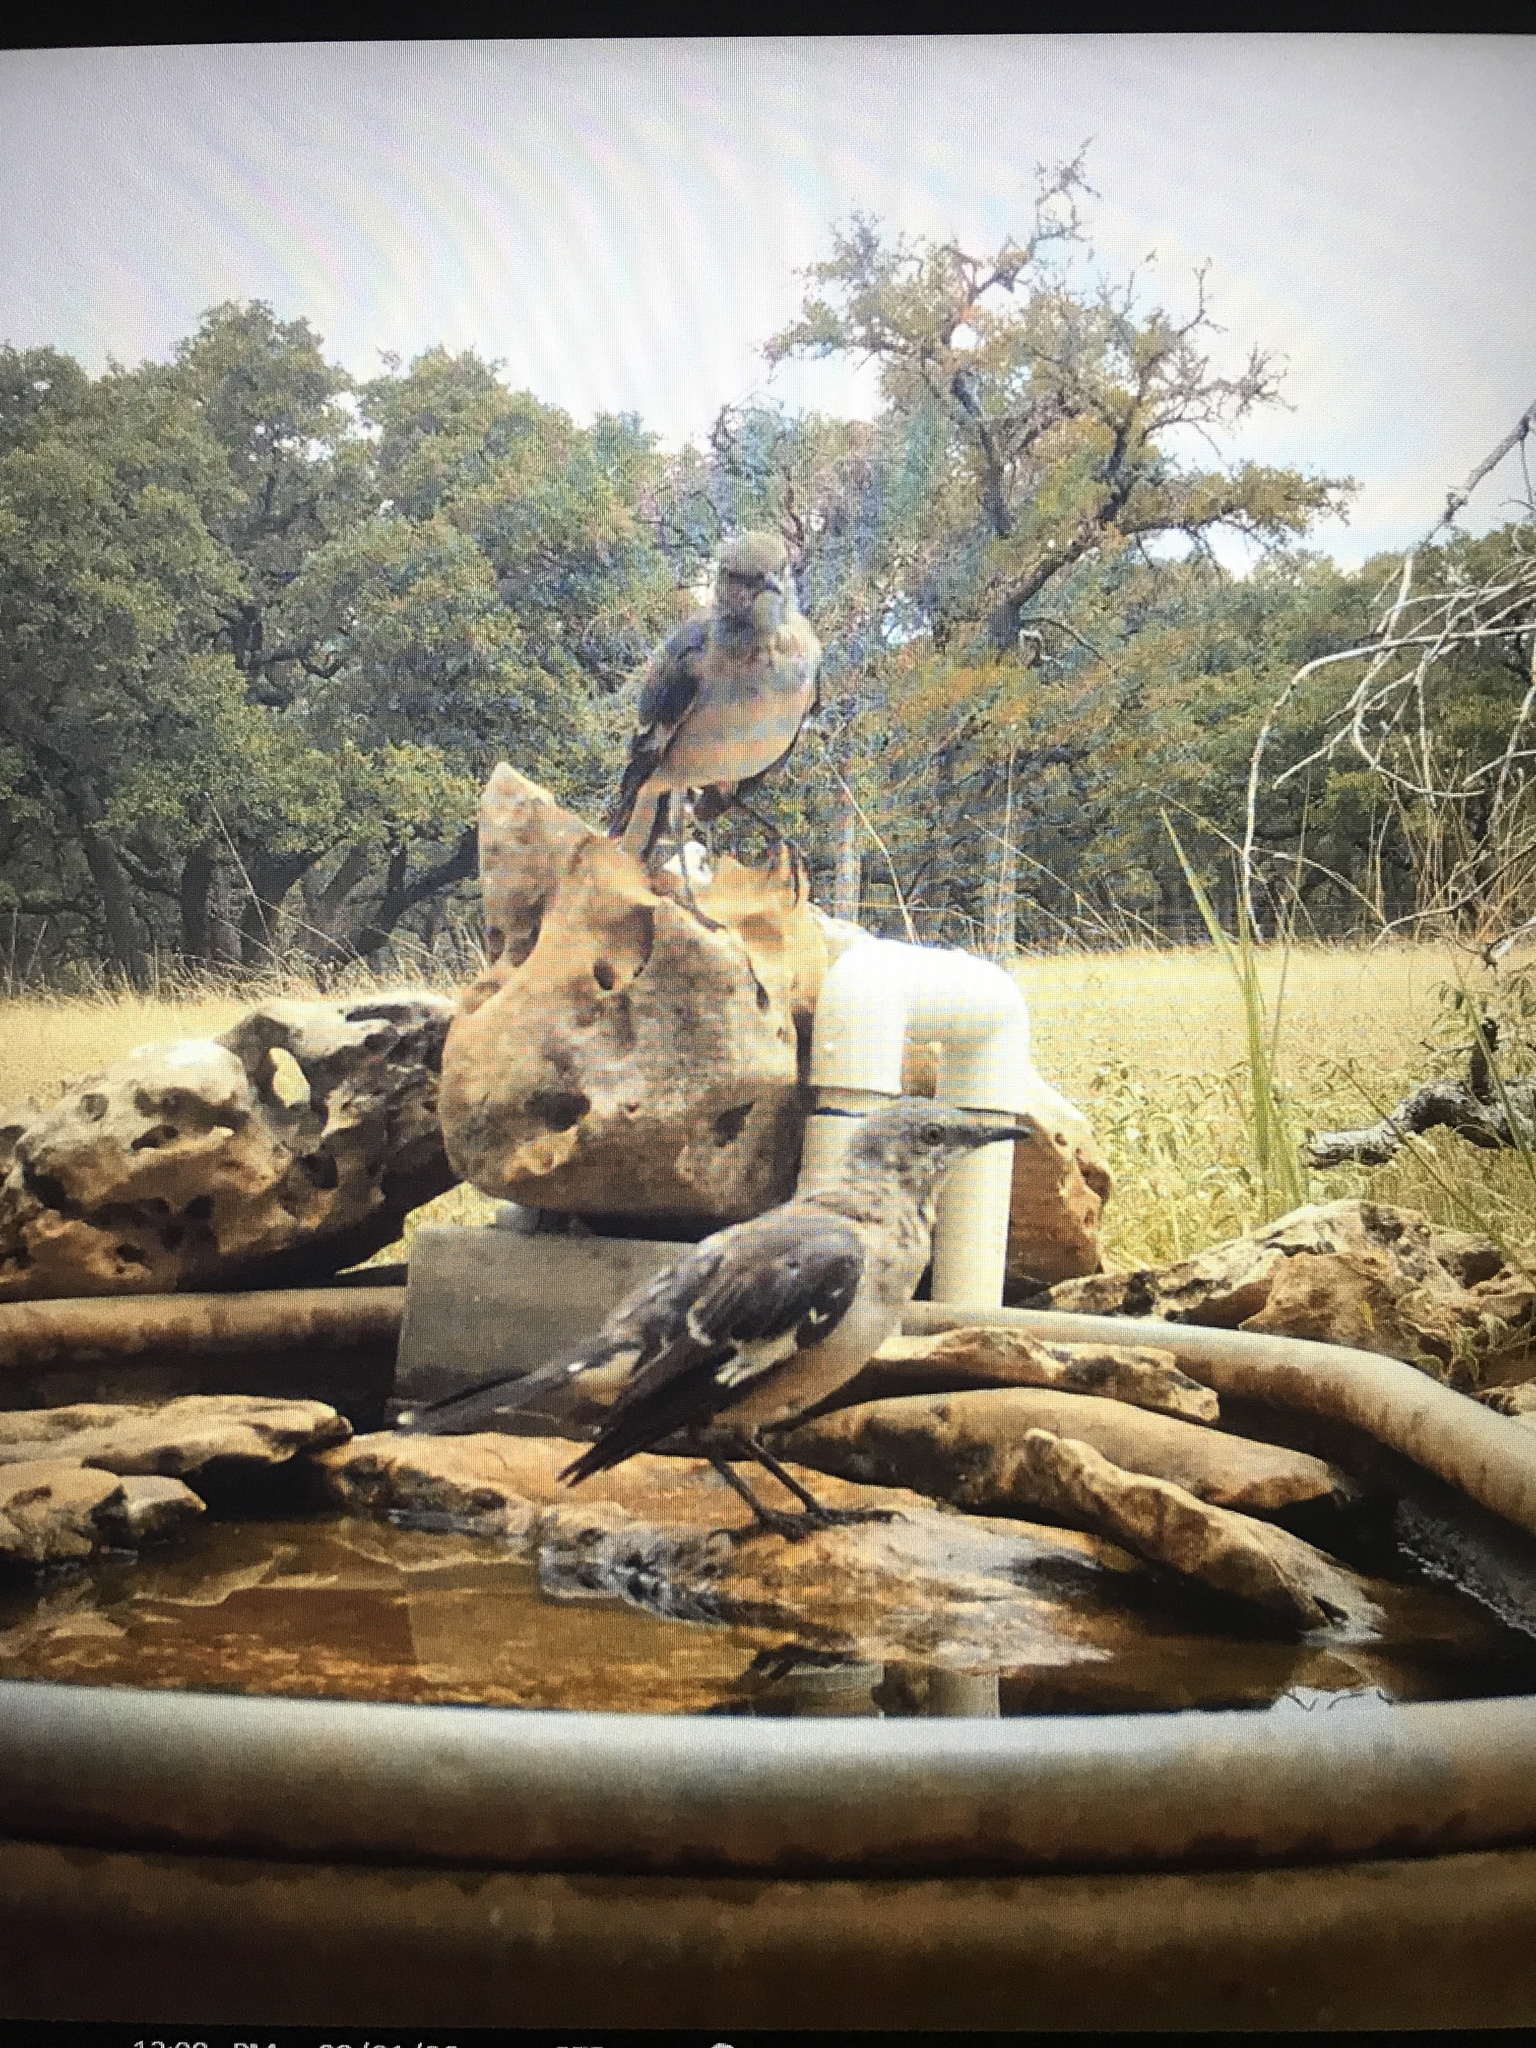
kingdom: Animalia
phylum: Chordata
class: Aves
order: Passeriformes
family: Mimidae
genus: Mimus
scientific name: Mimus polyglottos
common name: Northern mockingbird
